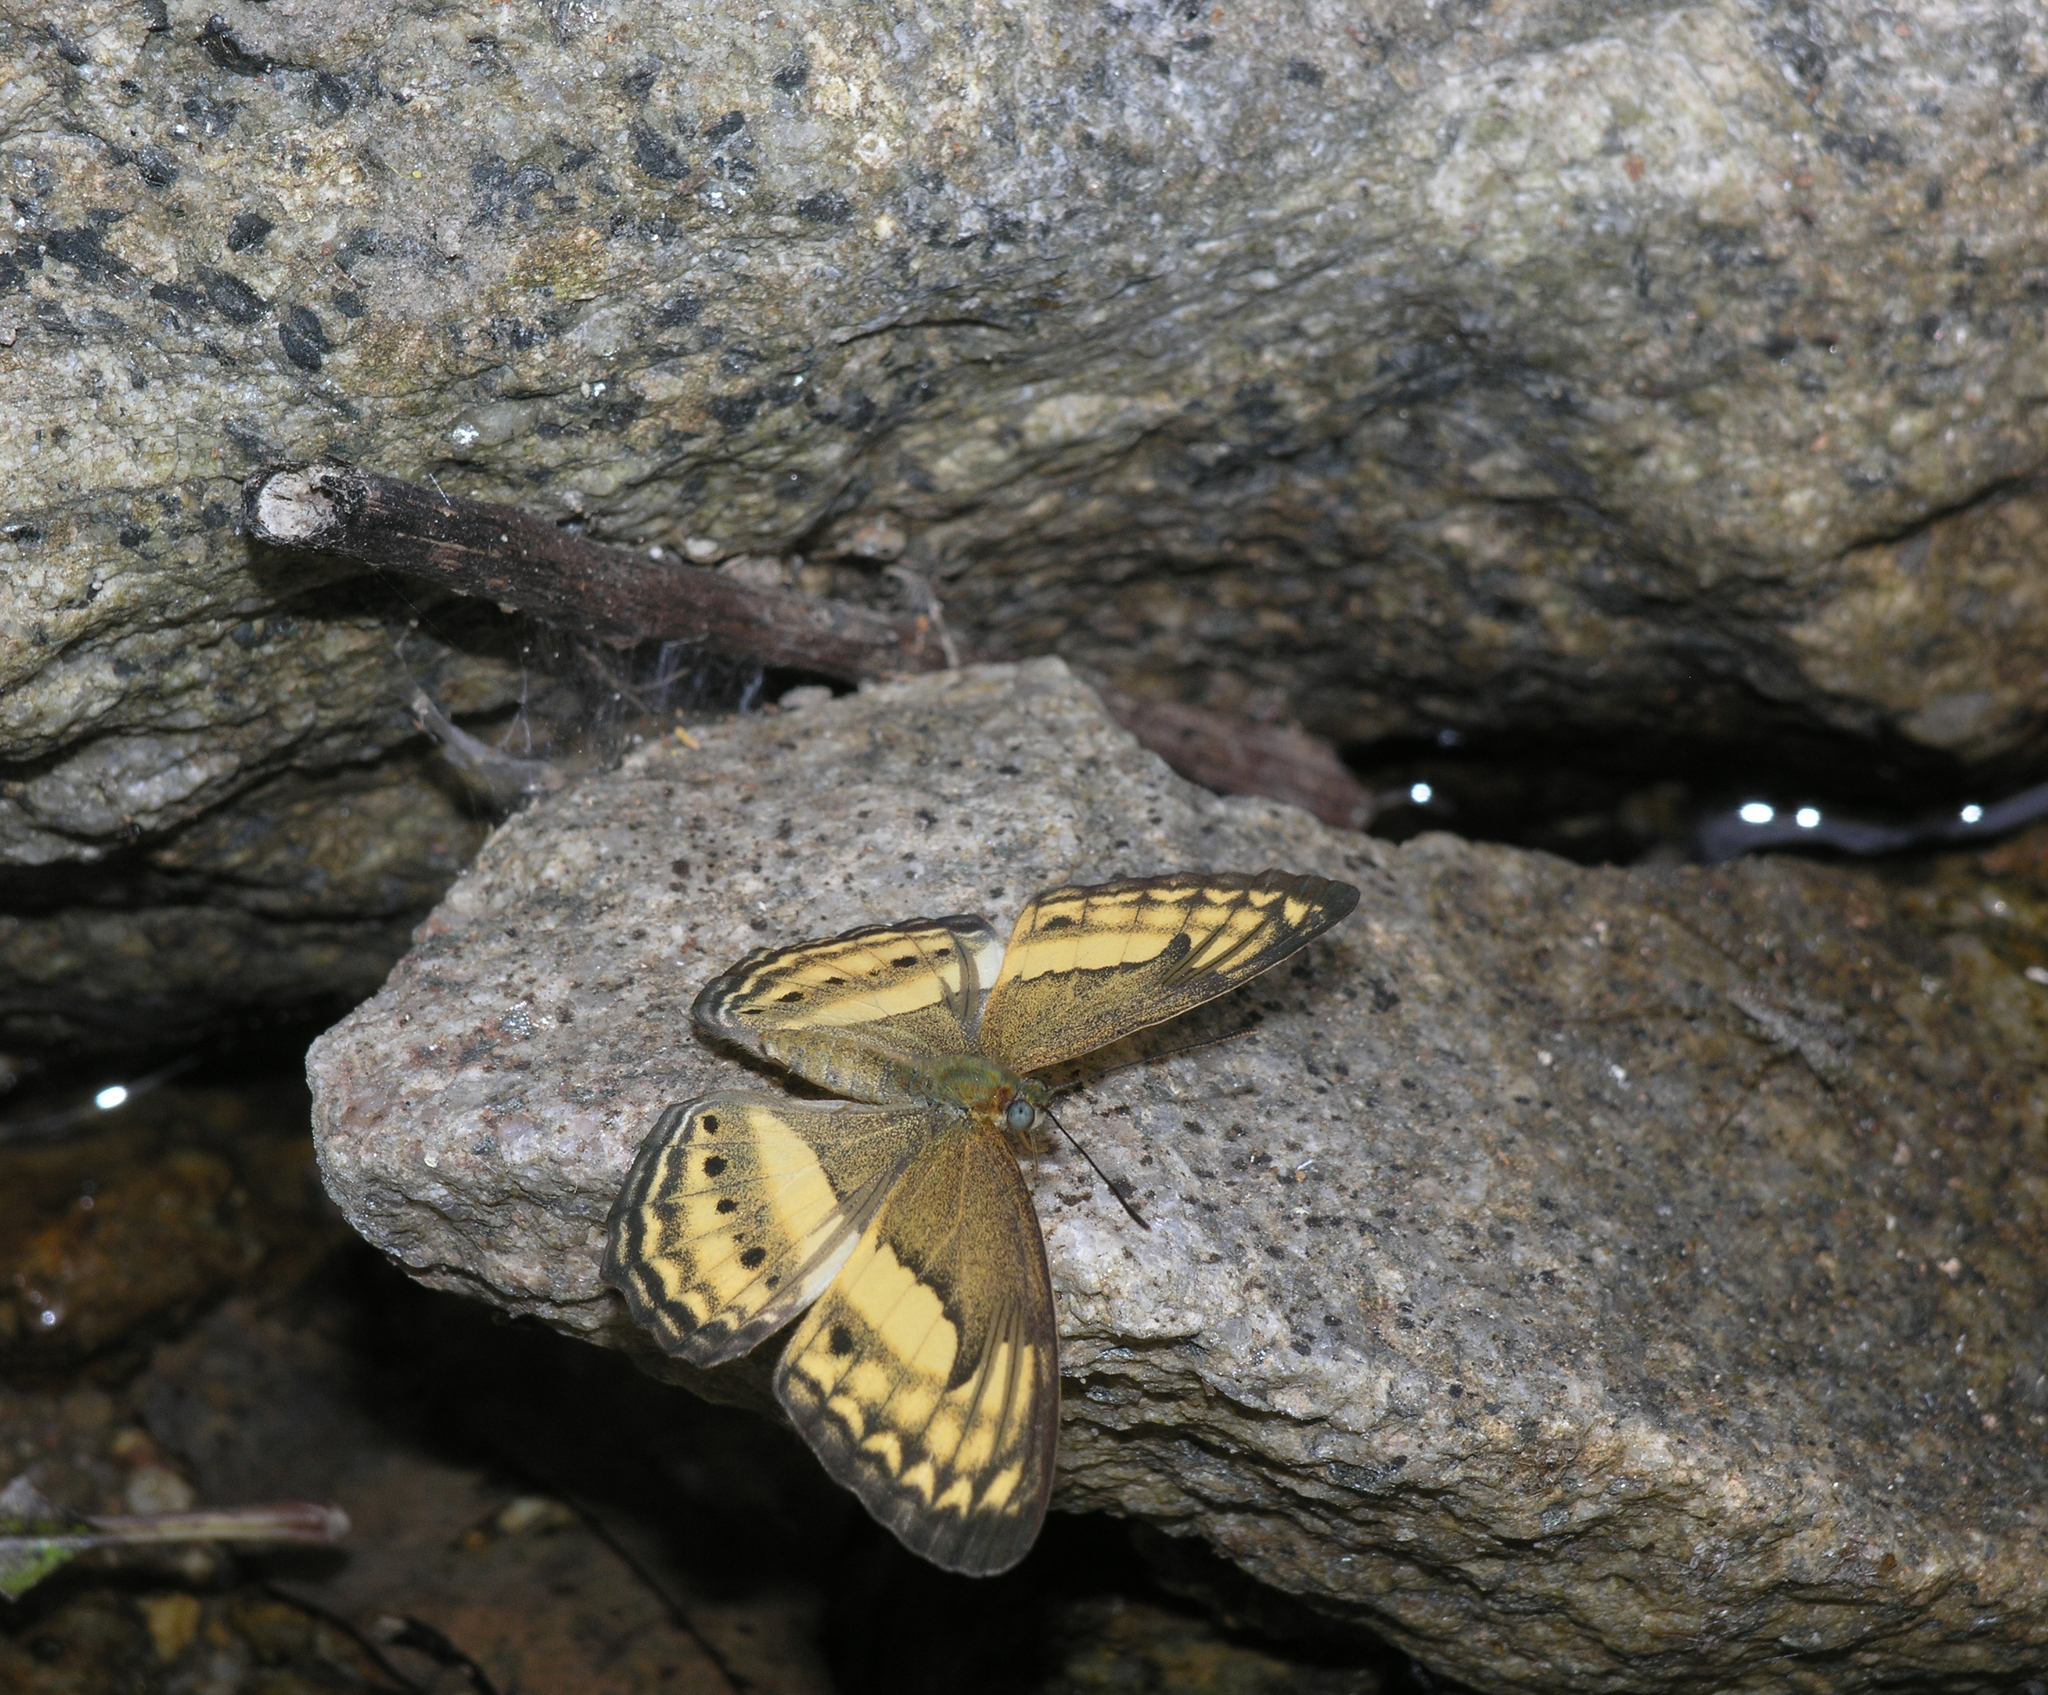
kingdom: Animalia
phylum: Arthropoda
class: Insecta
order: Lepidoptera
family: Nymphalidae
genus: Algia
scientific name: Algia fasciata
